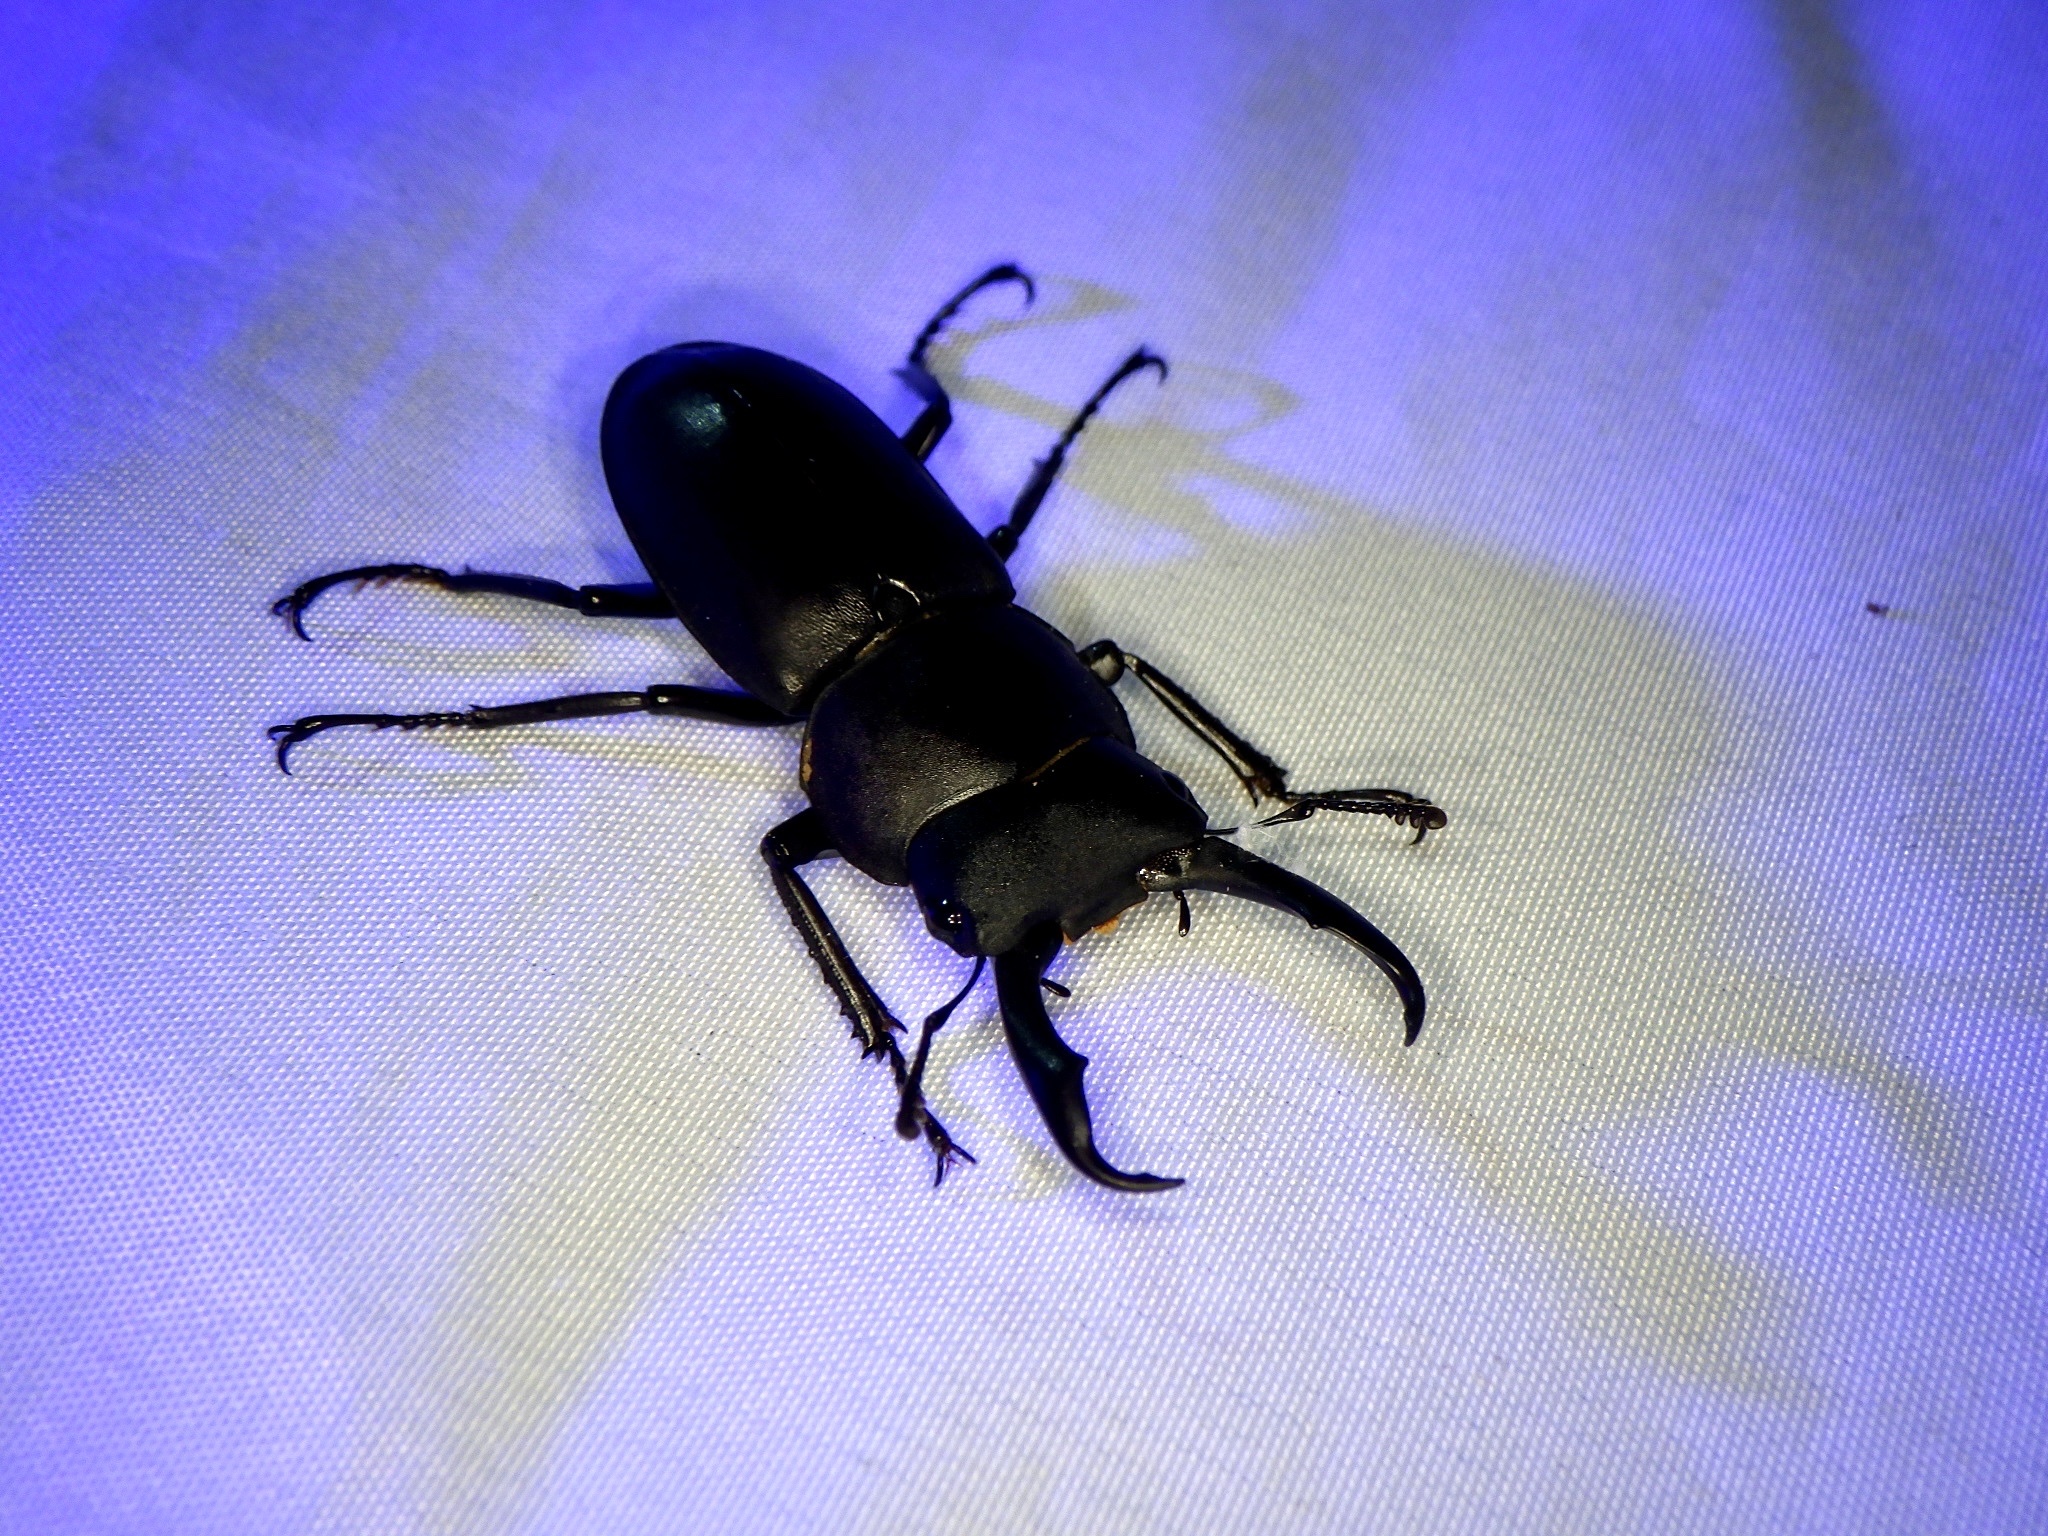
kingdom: Animalia
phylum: Arthropoda
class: Insecta
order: Coleoptera
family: Lucanidae
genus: Dorcus
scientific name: Dorcus rectus
